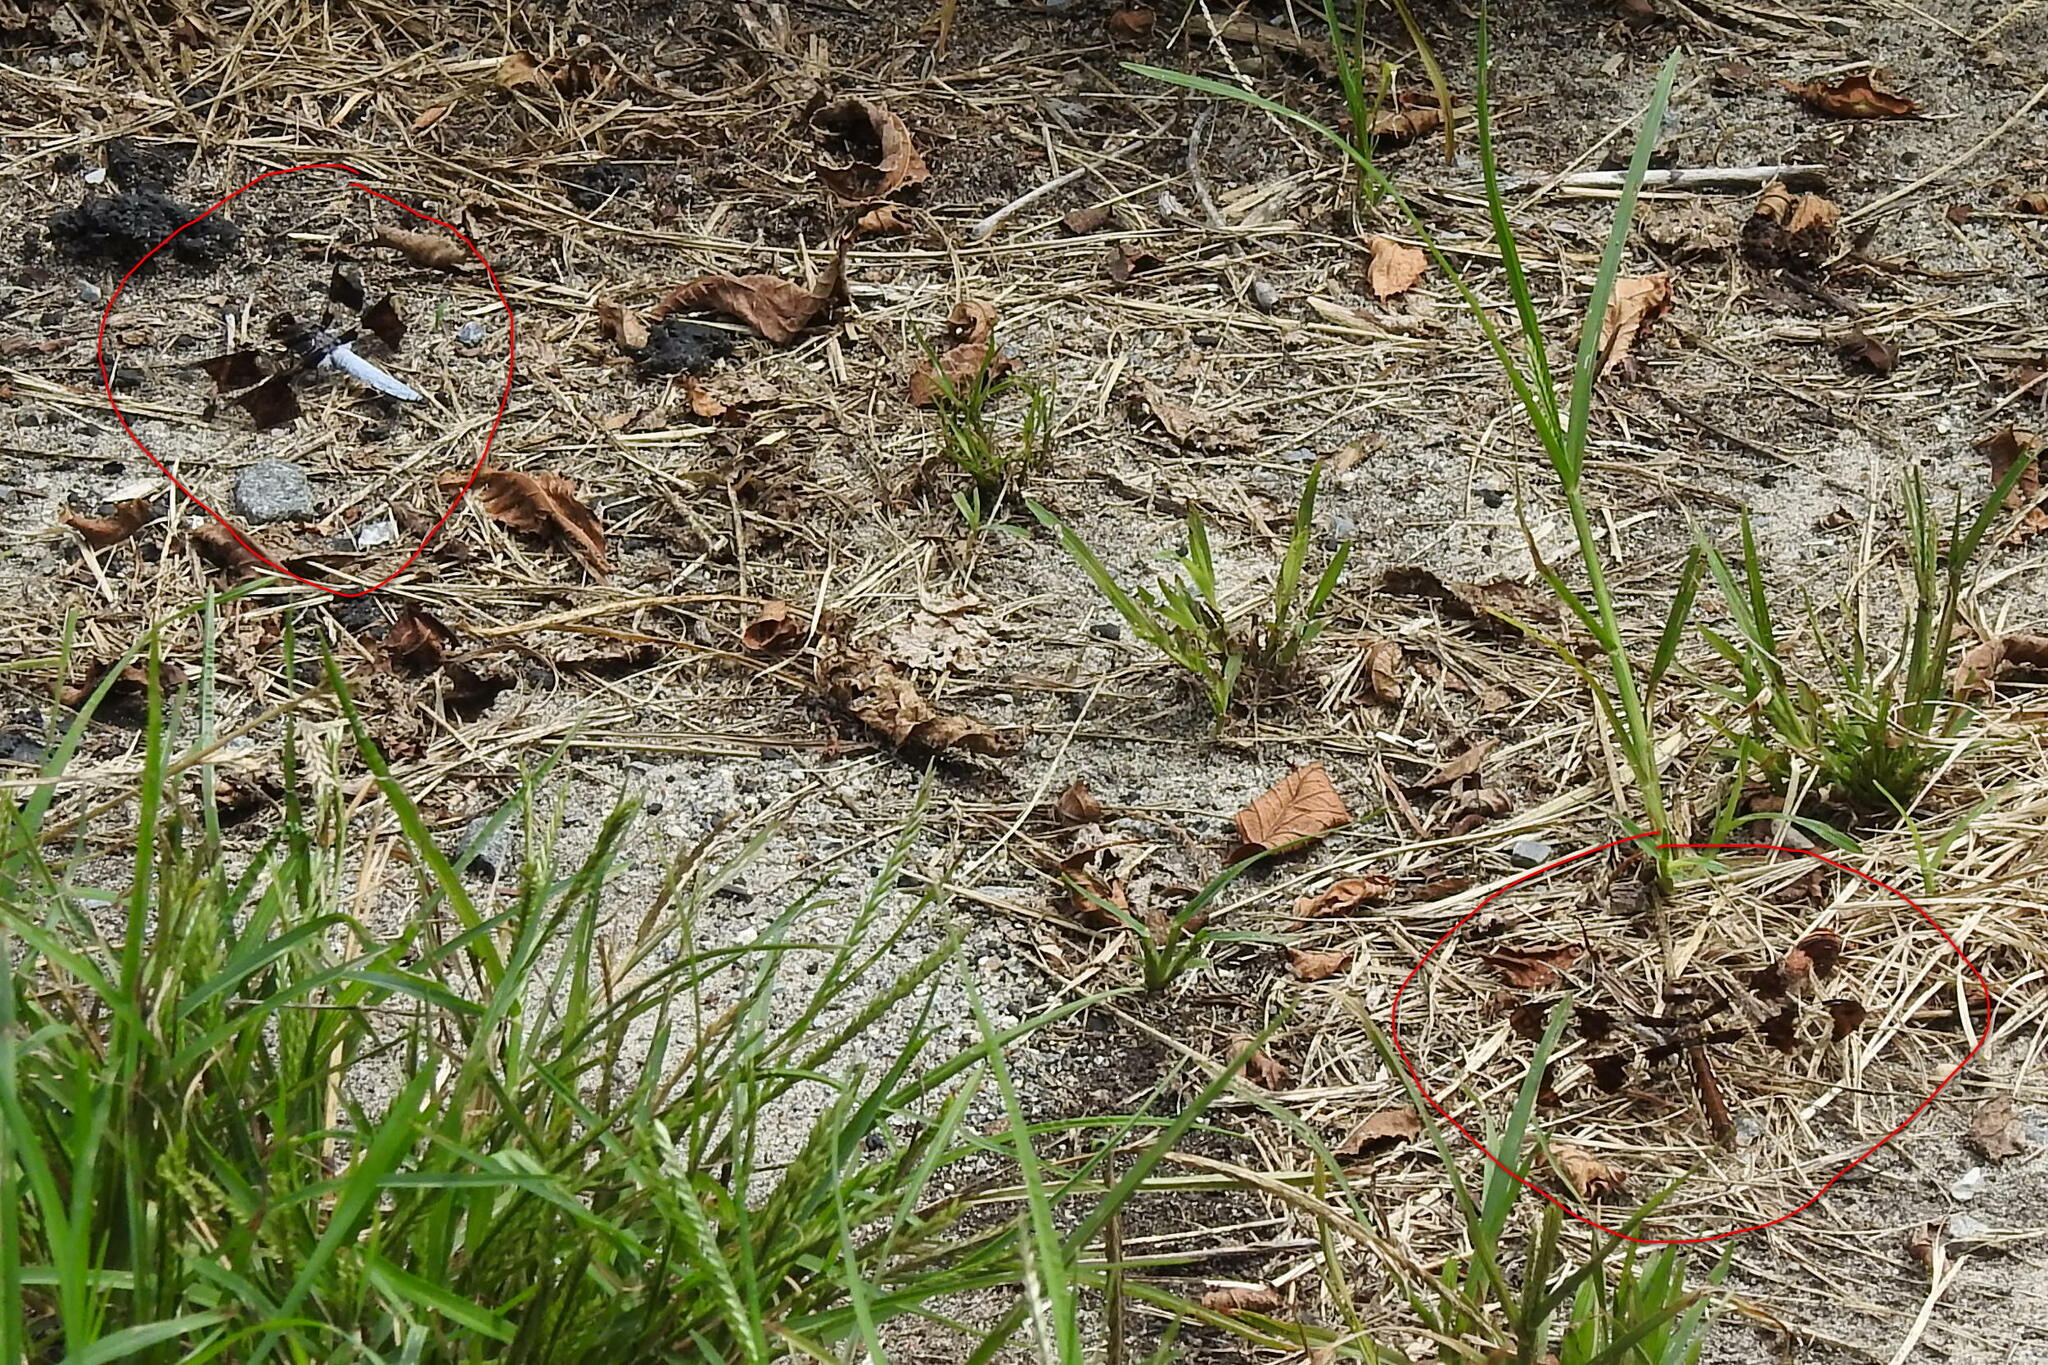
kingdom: Animalia
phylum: Arthropoda
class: Insecta
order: Odonata
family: Libellulidae
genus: Plathemis
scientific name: Plathemis lydia
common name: Common whitetail
